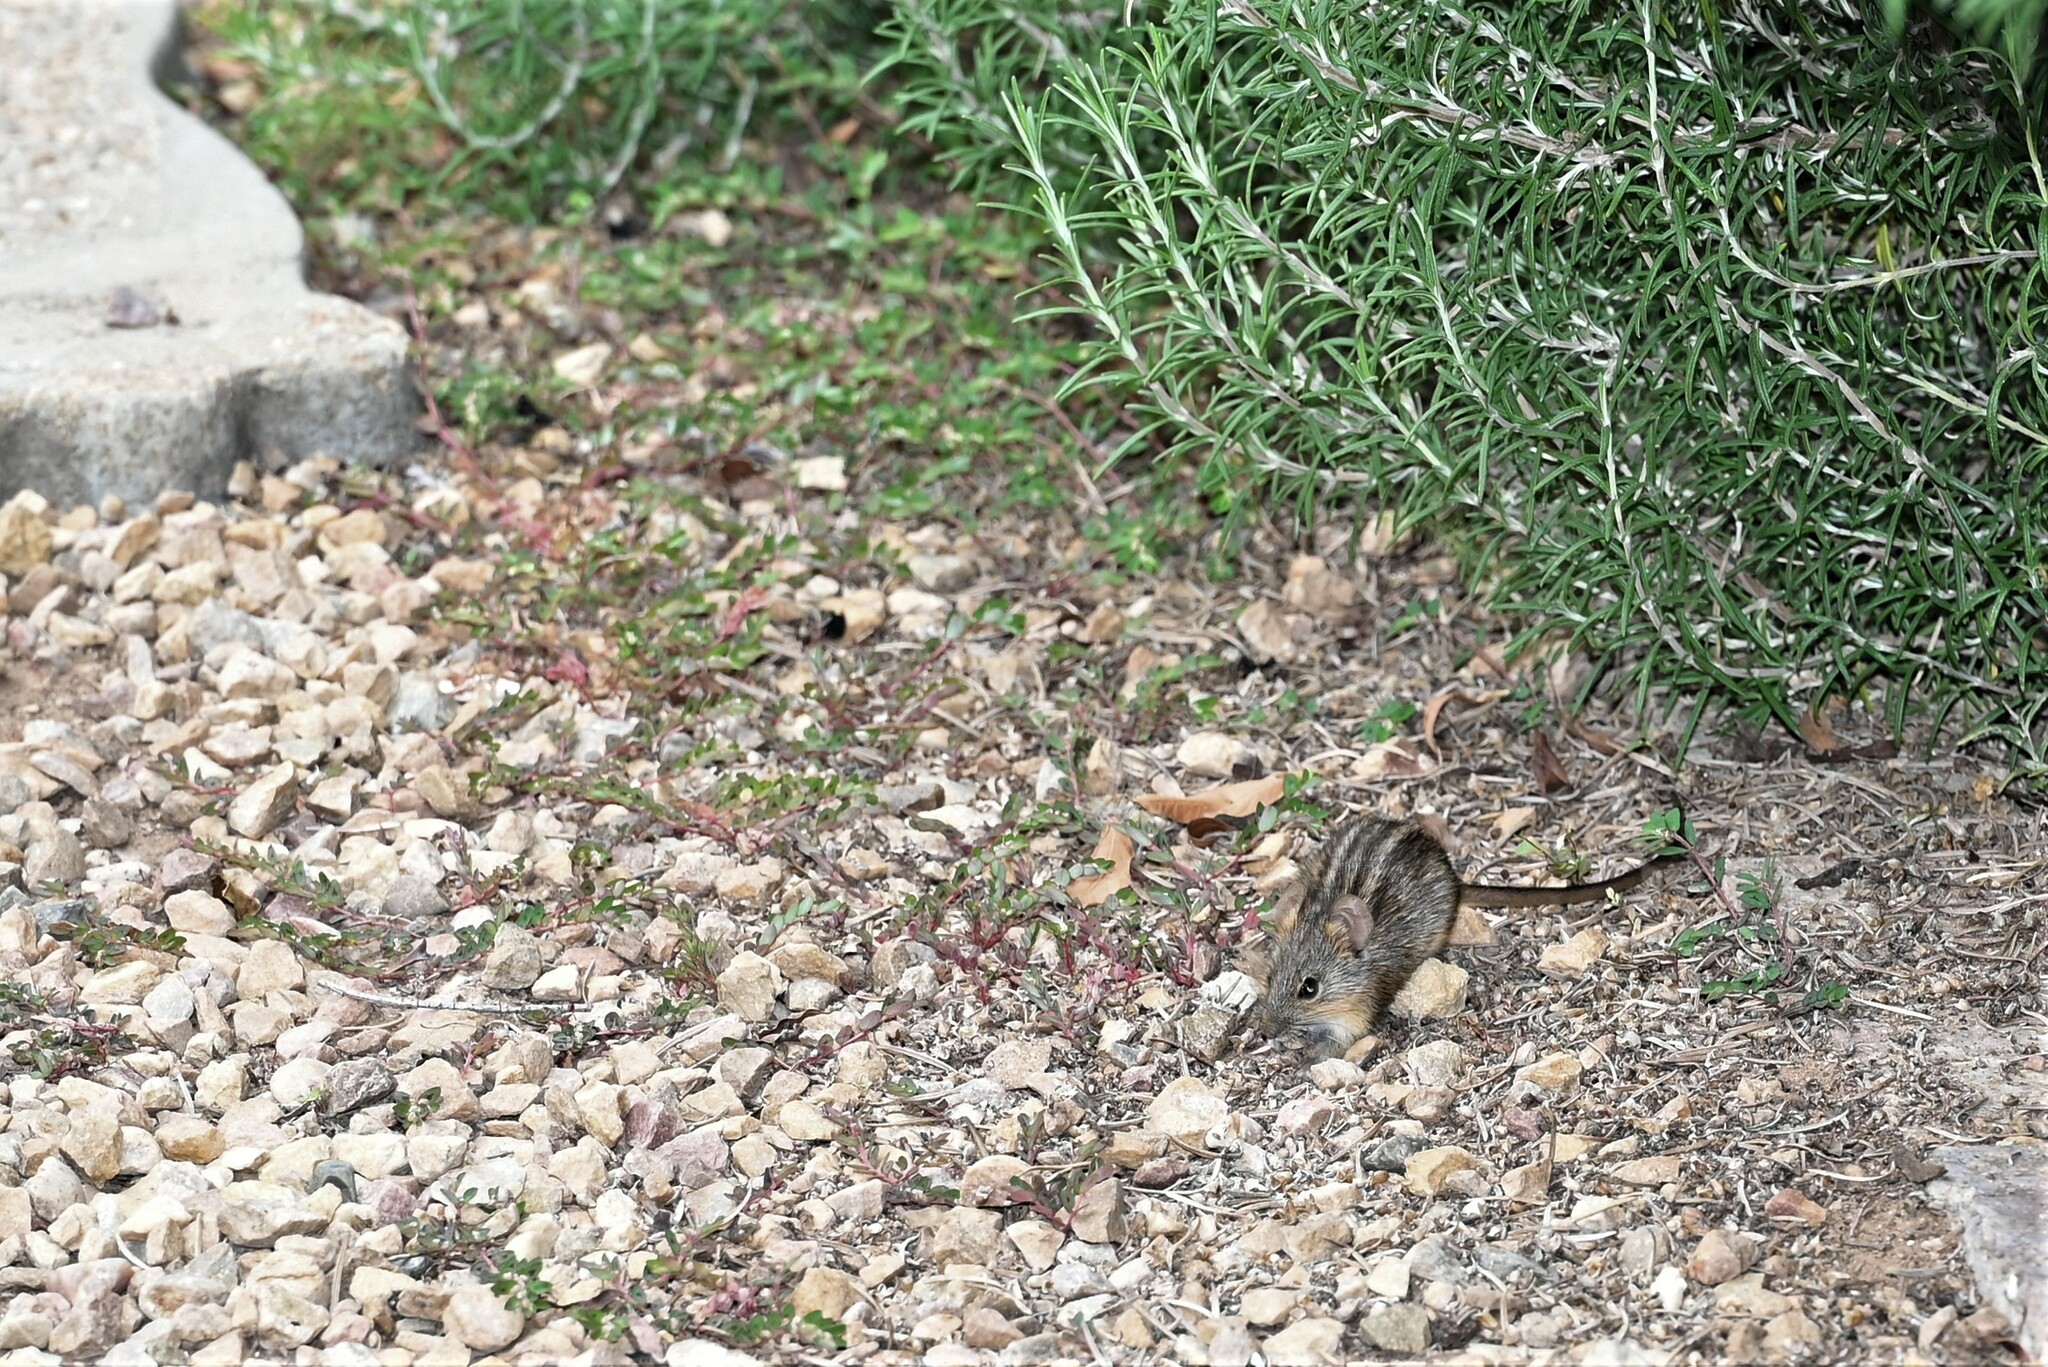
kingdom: Animalia
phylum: Chordata
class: Mammalia
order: Rodentia
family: Muridae
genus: Rhabdomys
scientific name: Rhabdomys pumilio
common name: Xeric four-striped grass rat
